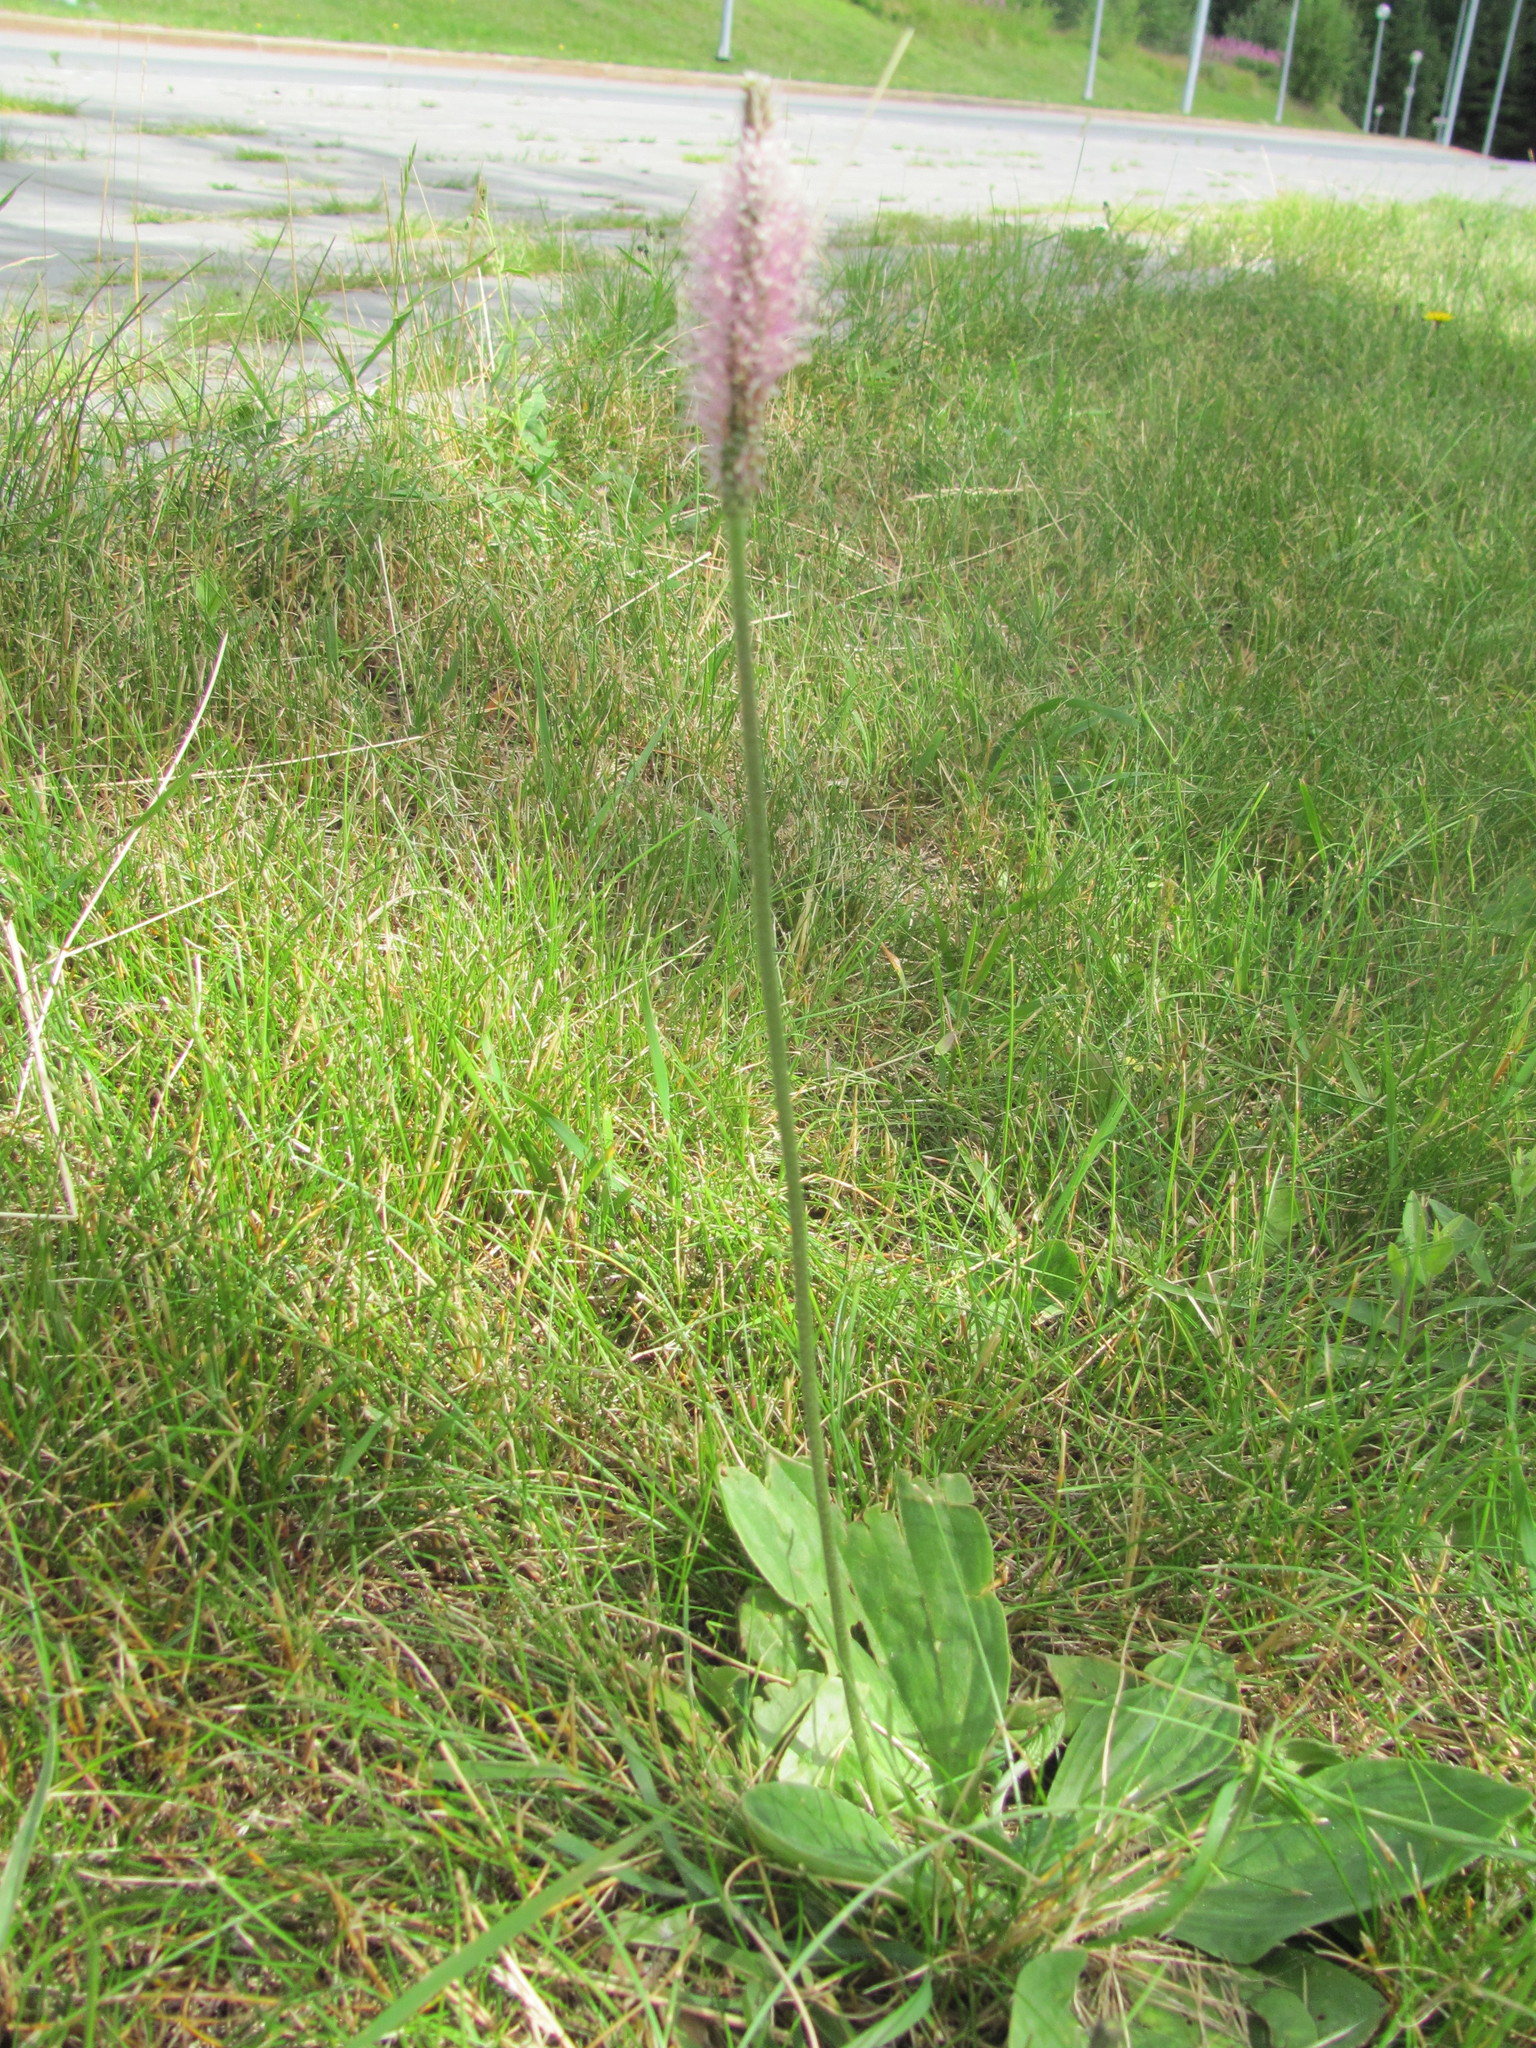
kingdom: Plantae
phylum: Tracheophyta
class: Magnoliopsida
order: Lamiales
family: Plantaginaceae
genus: Plantago
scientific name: Plantago media
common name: Hoary plantain
